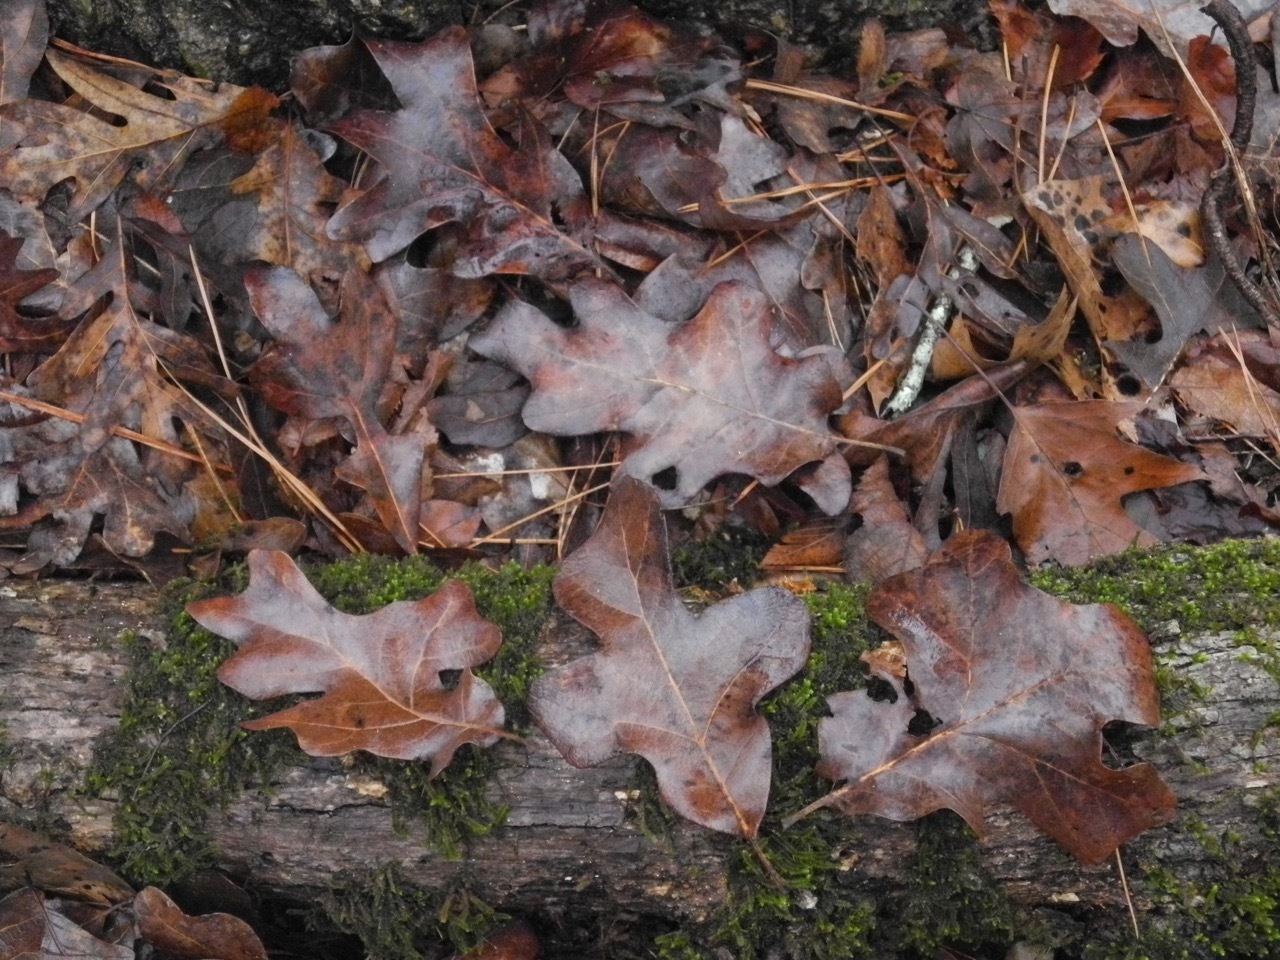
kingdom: Plantae
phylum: Tracheophyta
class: Magnoliopsida
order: Fagales
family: Fagaceae
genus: Quercus
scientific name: Quercus stellata
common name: Post oak
